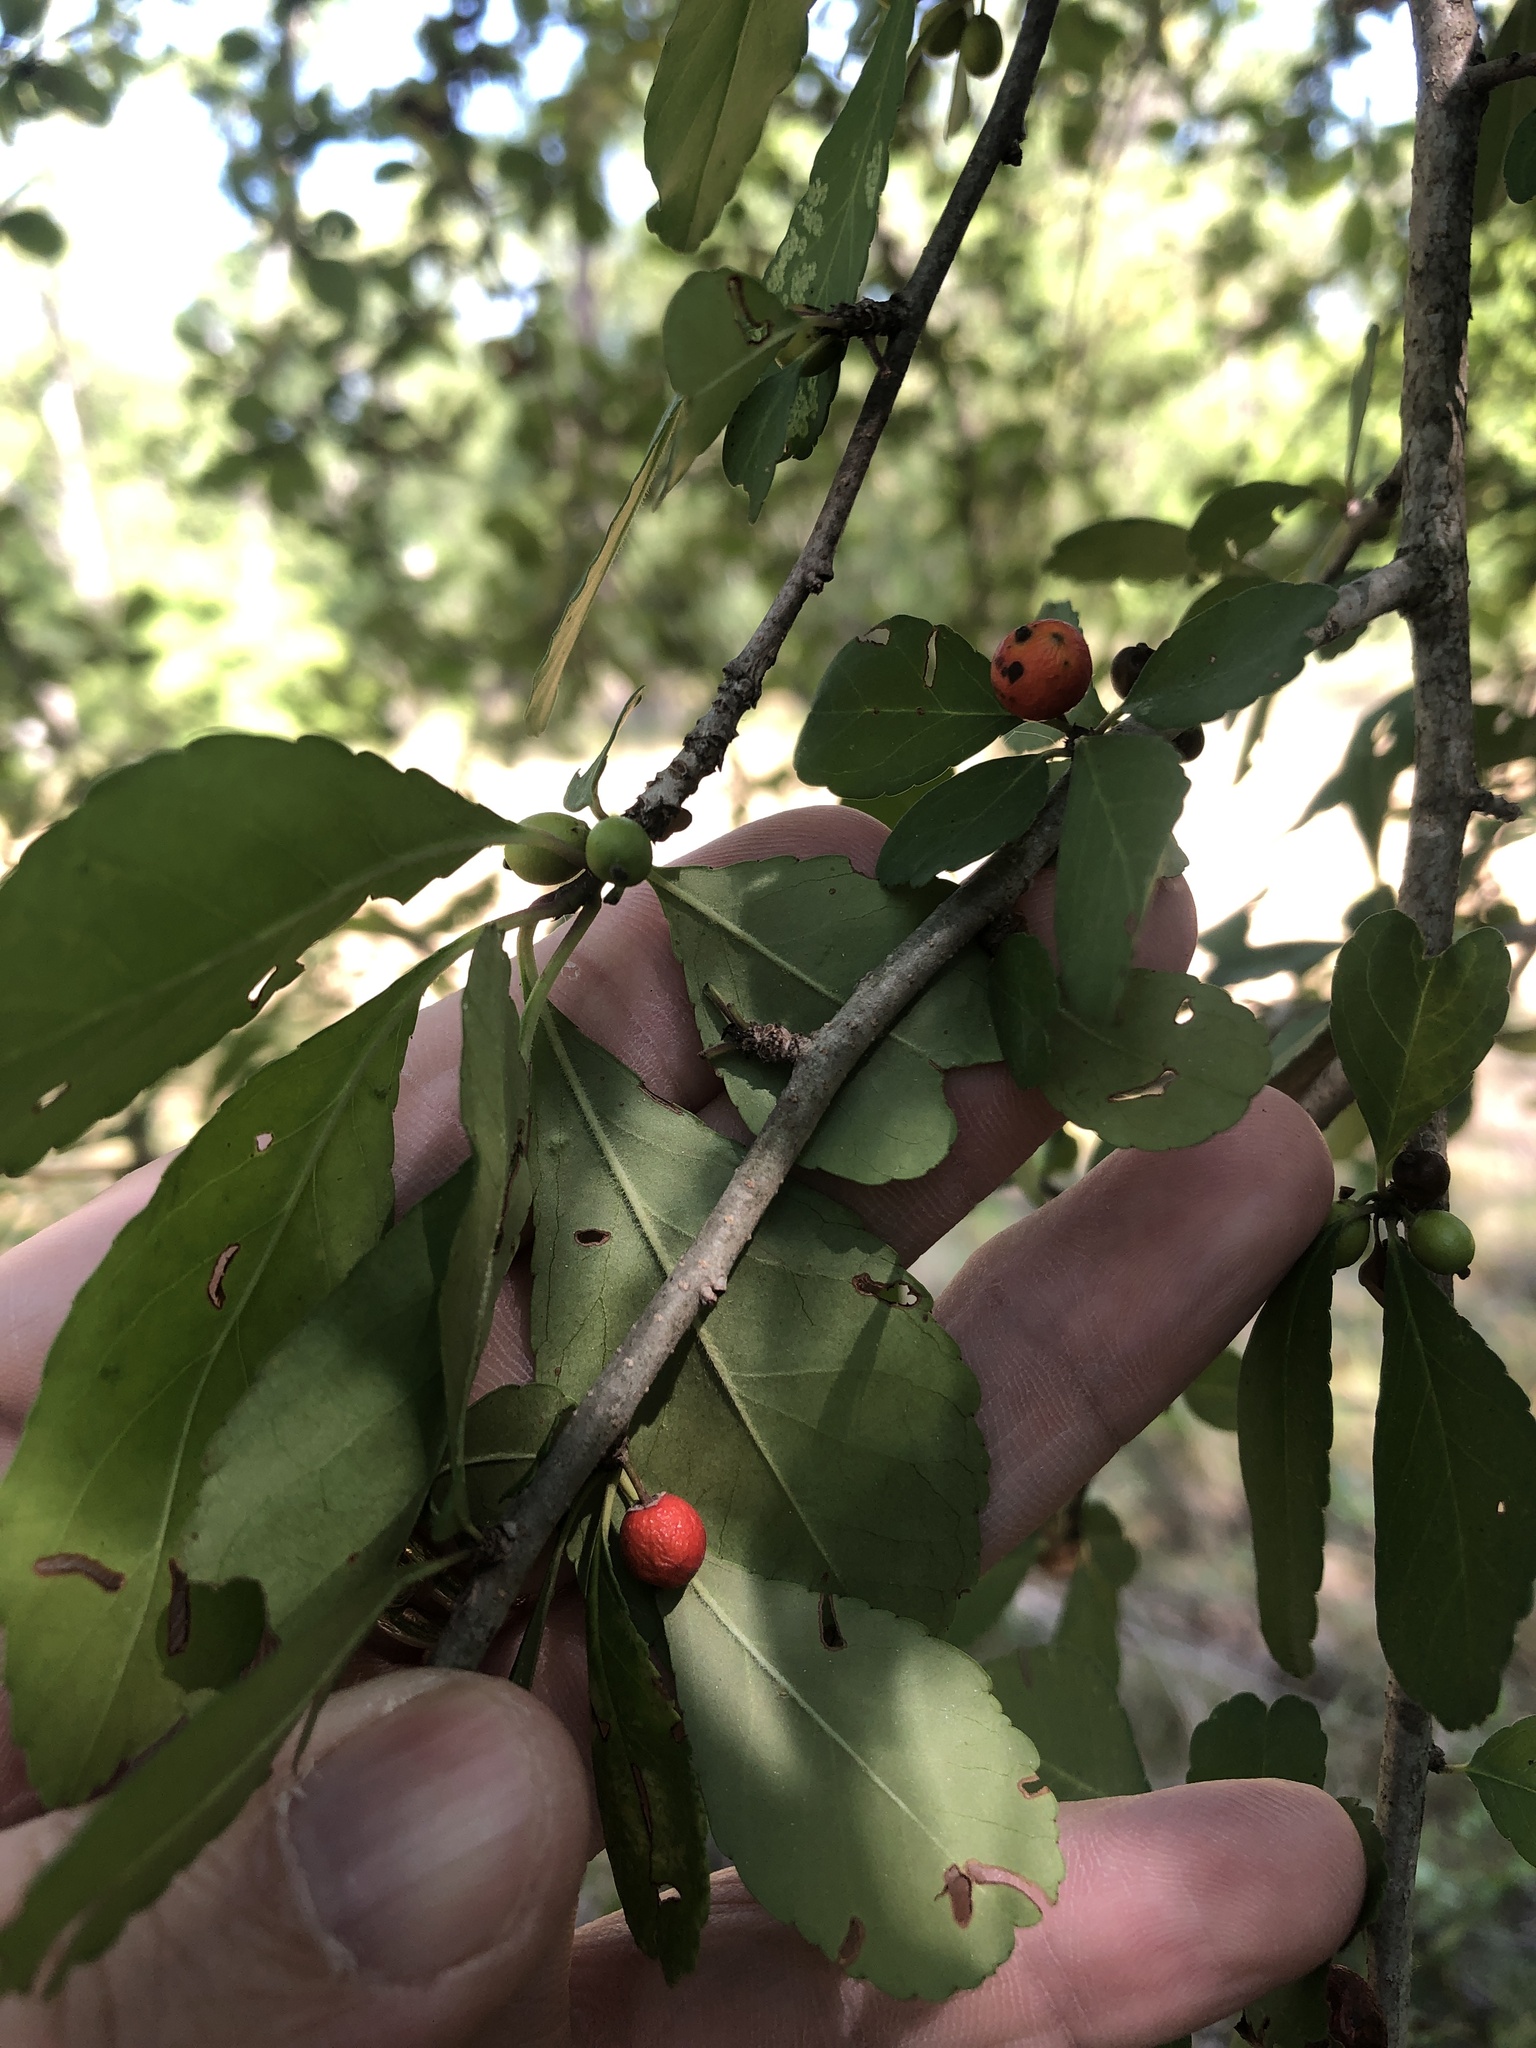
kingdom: Plantae
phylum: Tracheophyta
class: Magnoliopsida
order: Aquifoliales
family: Aquifoliaceae
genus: Ilex
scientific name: Ilex decidua
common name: Possum-haw
